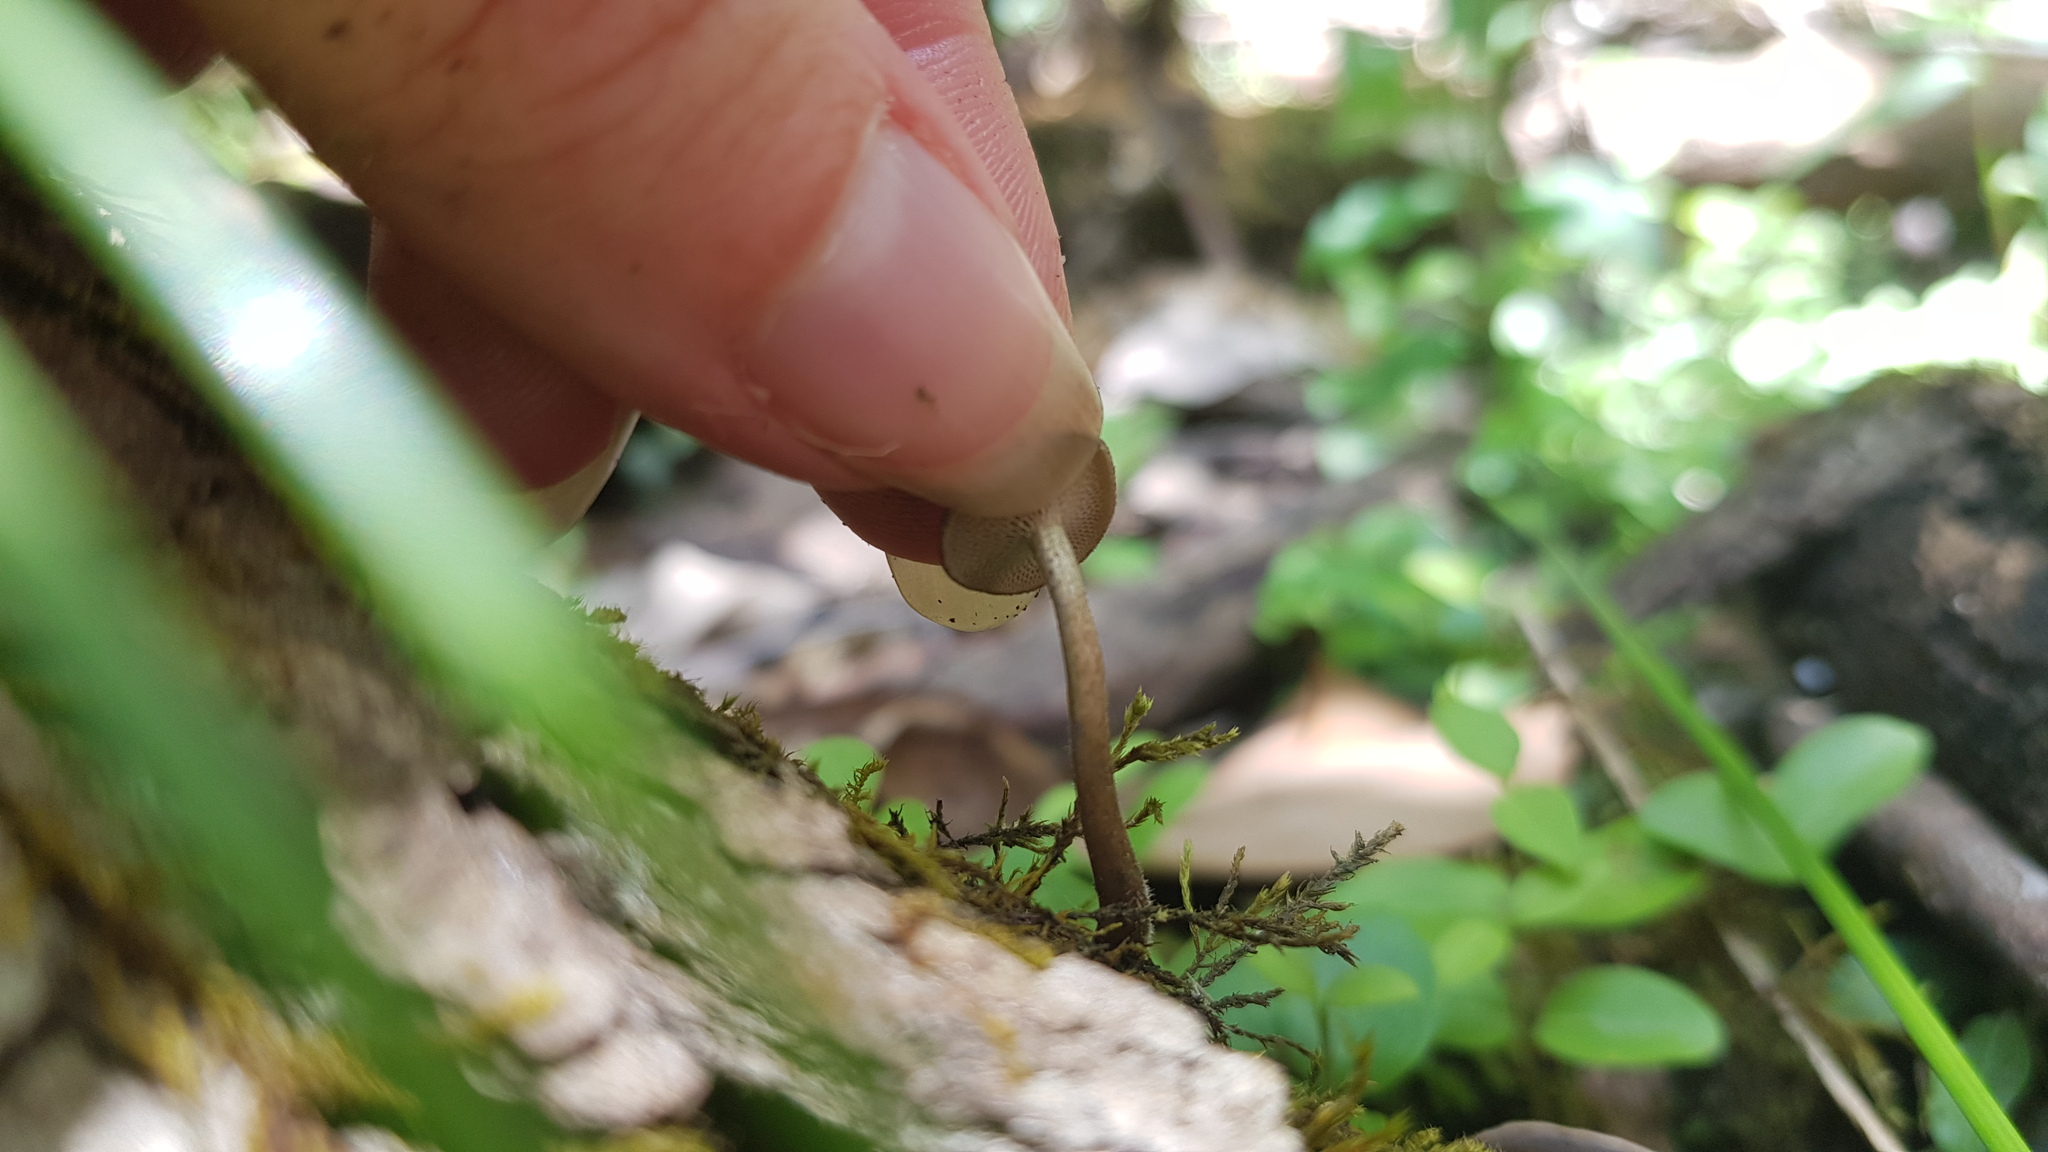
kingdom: Fungi
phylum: Basidiomycota
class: Agaricomycetes
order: Polyporales
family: Polyporaceae
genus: Lentinus
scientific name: Lentinus arcularius
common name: Spring polypore
